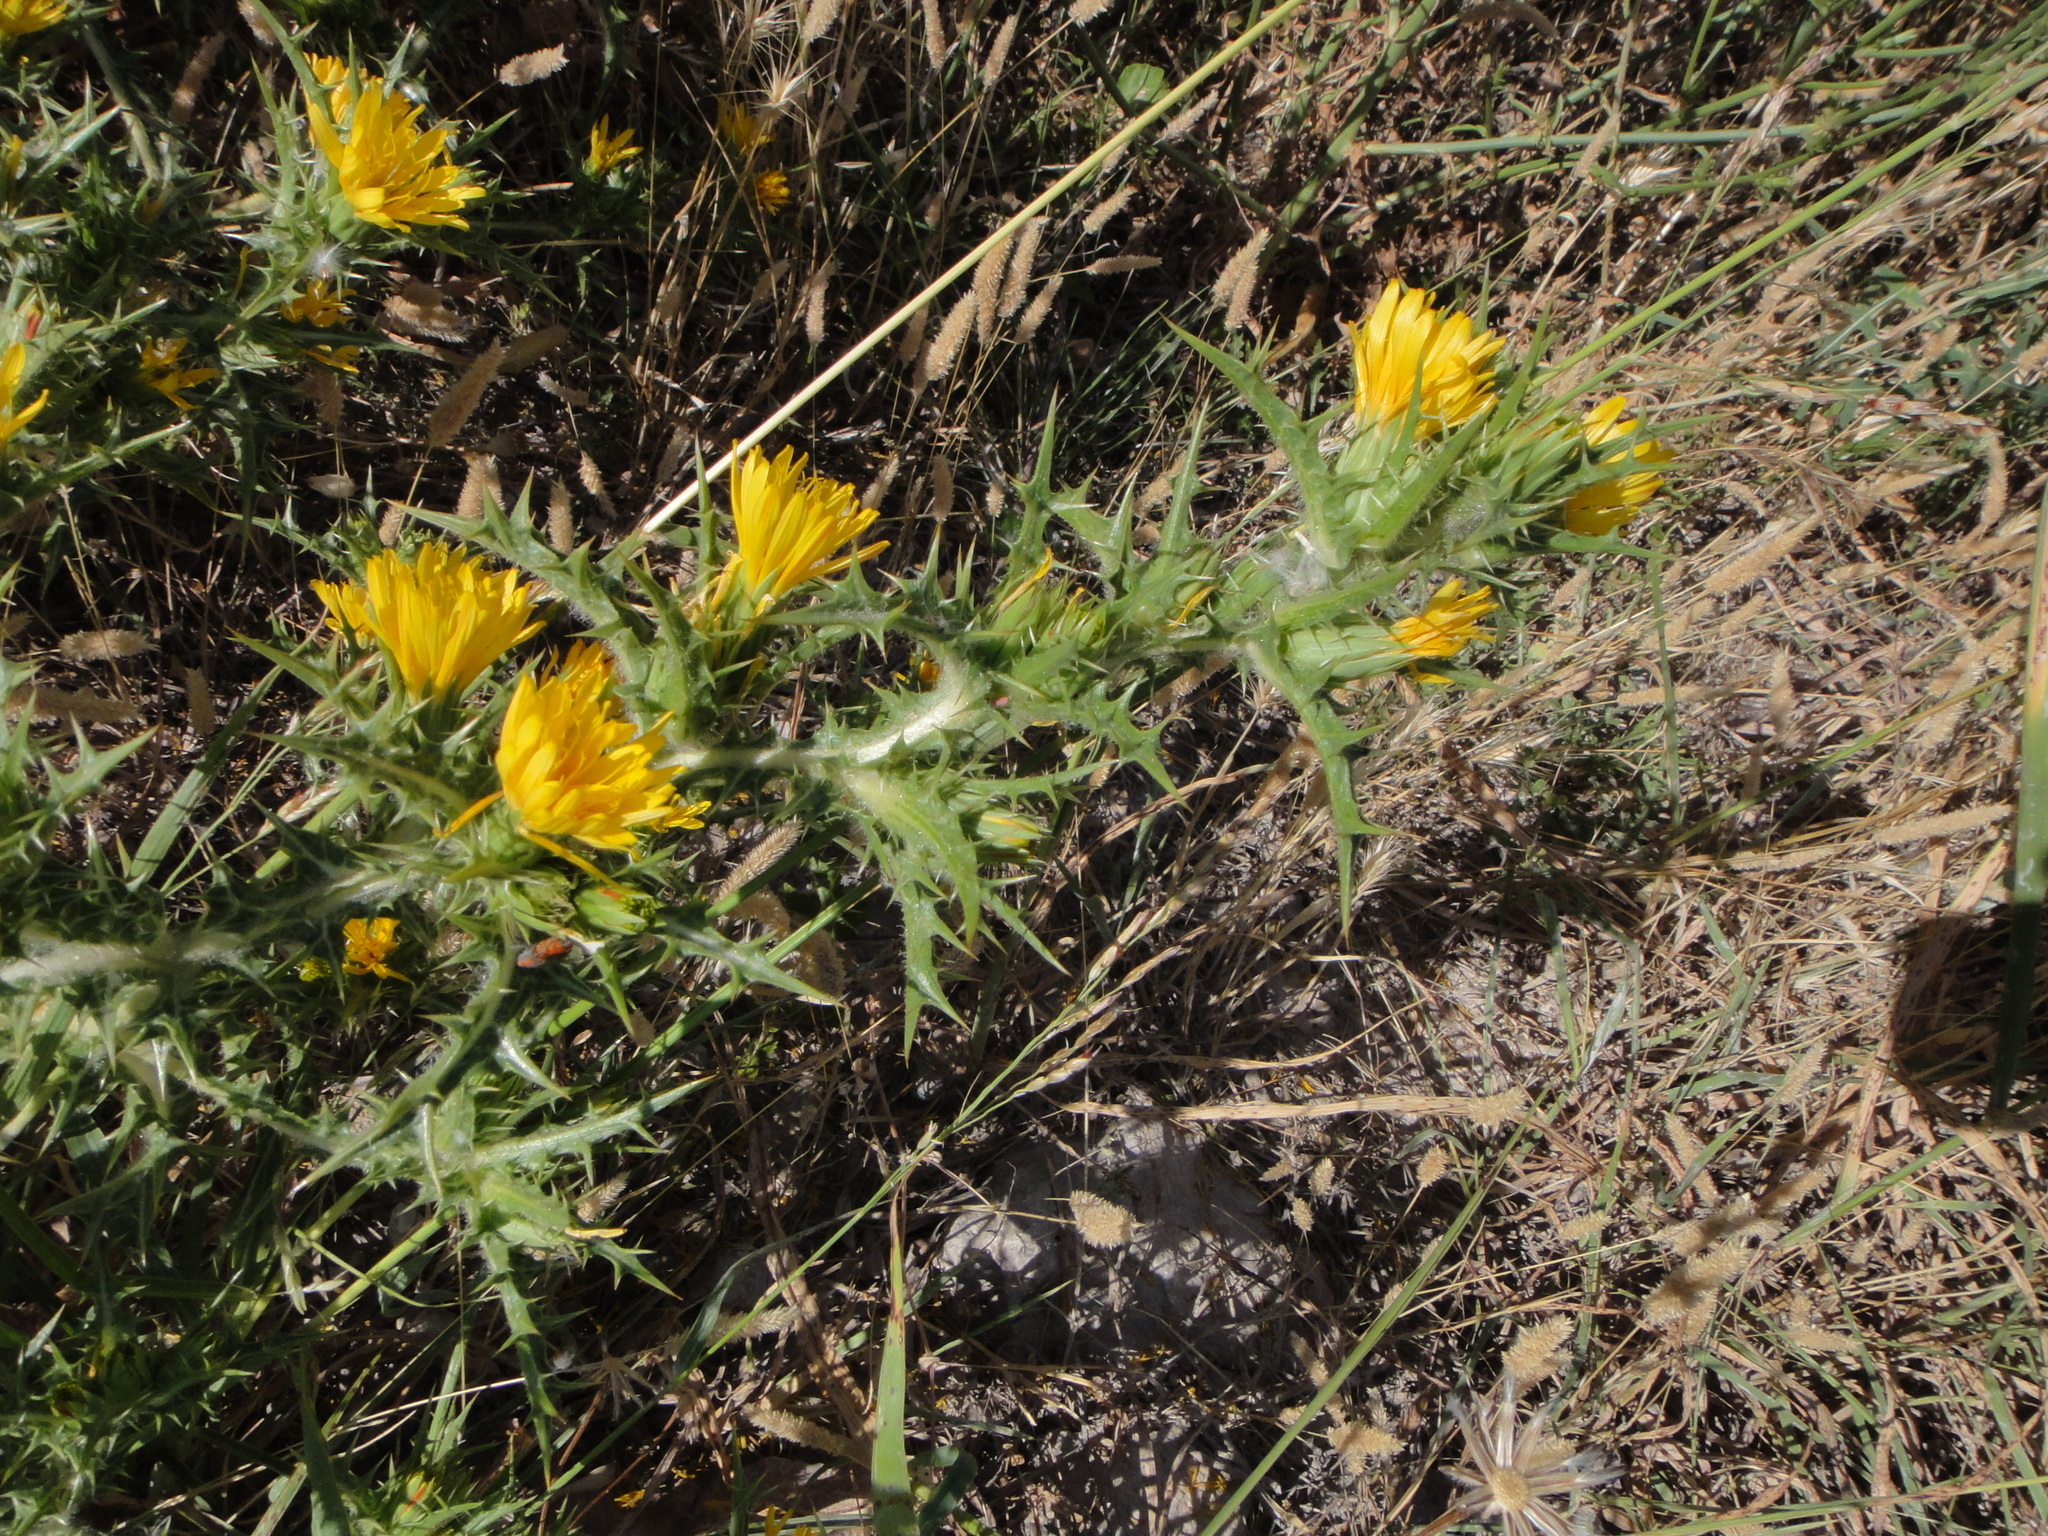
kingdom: Plantae
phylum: Tracheophyta
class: Magnoliopsida
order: Asterales
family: Asteraceae
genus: Scolymus
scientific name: Scolymus hispanicus
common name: Golden thistle
